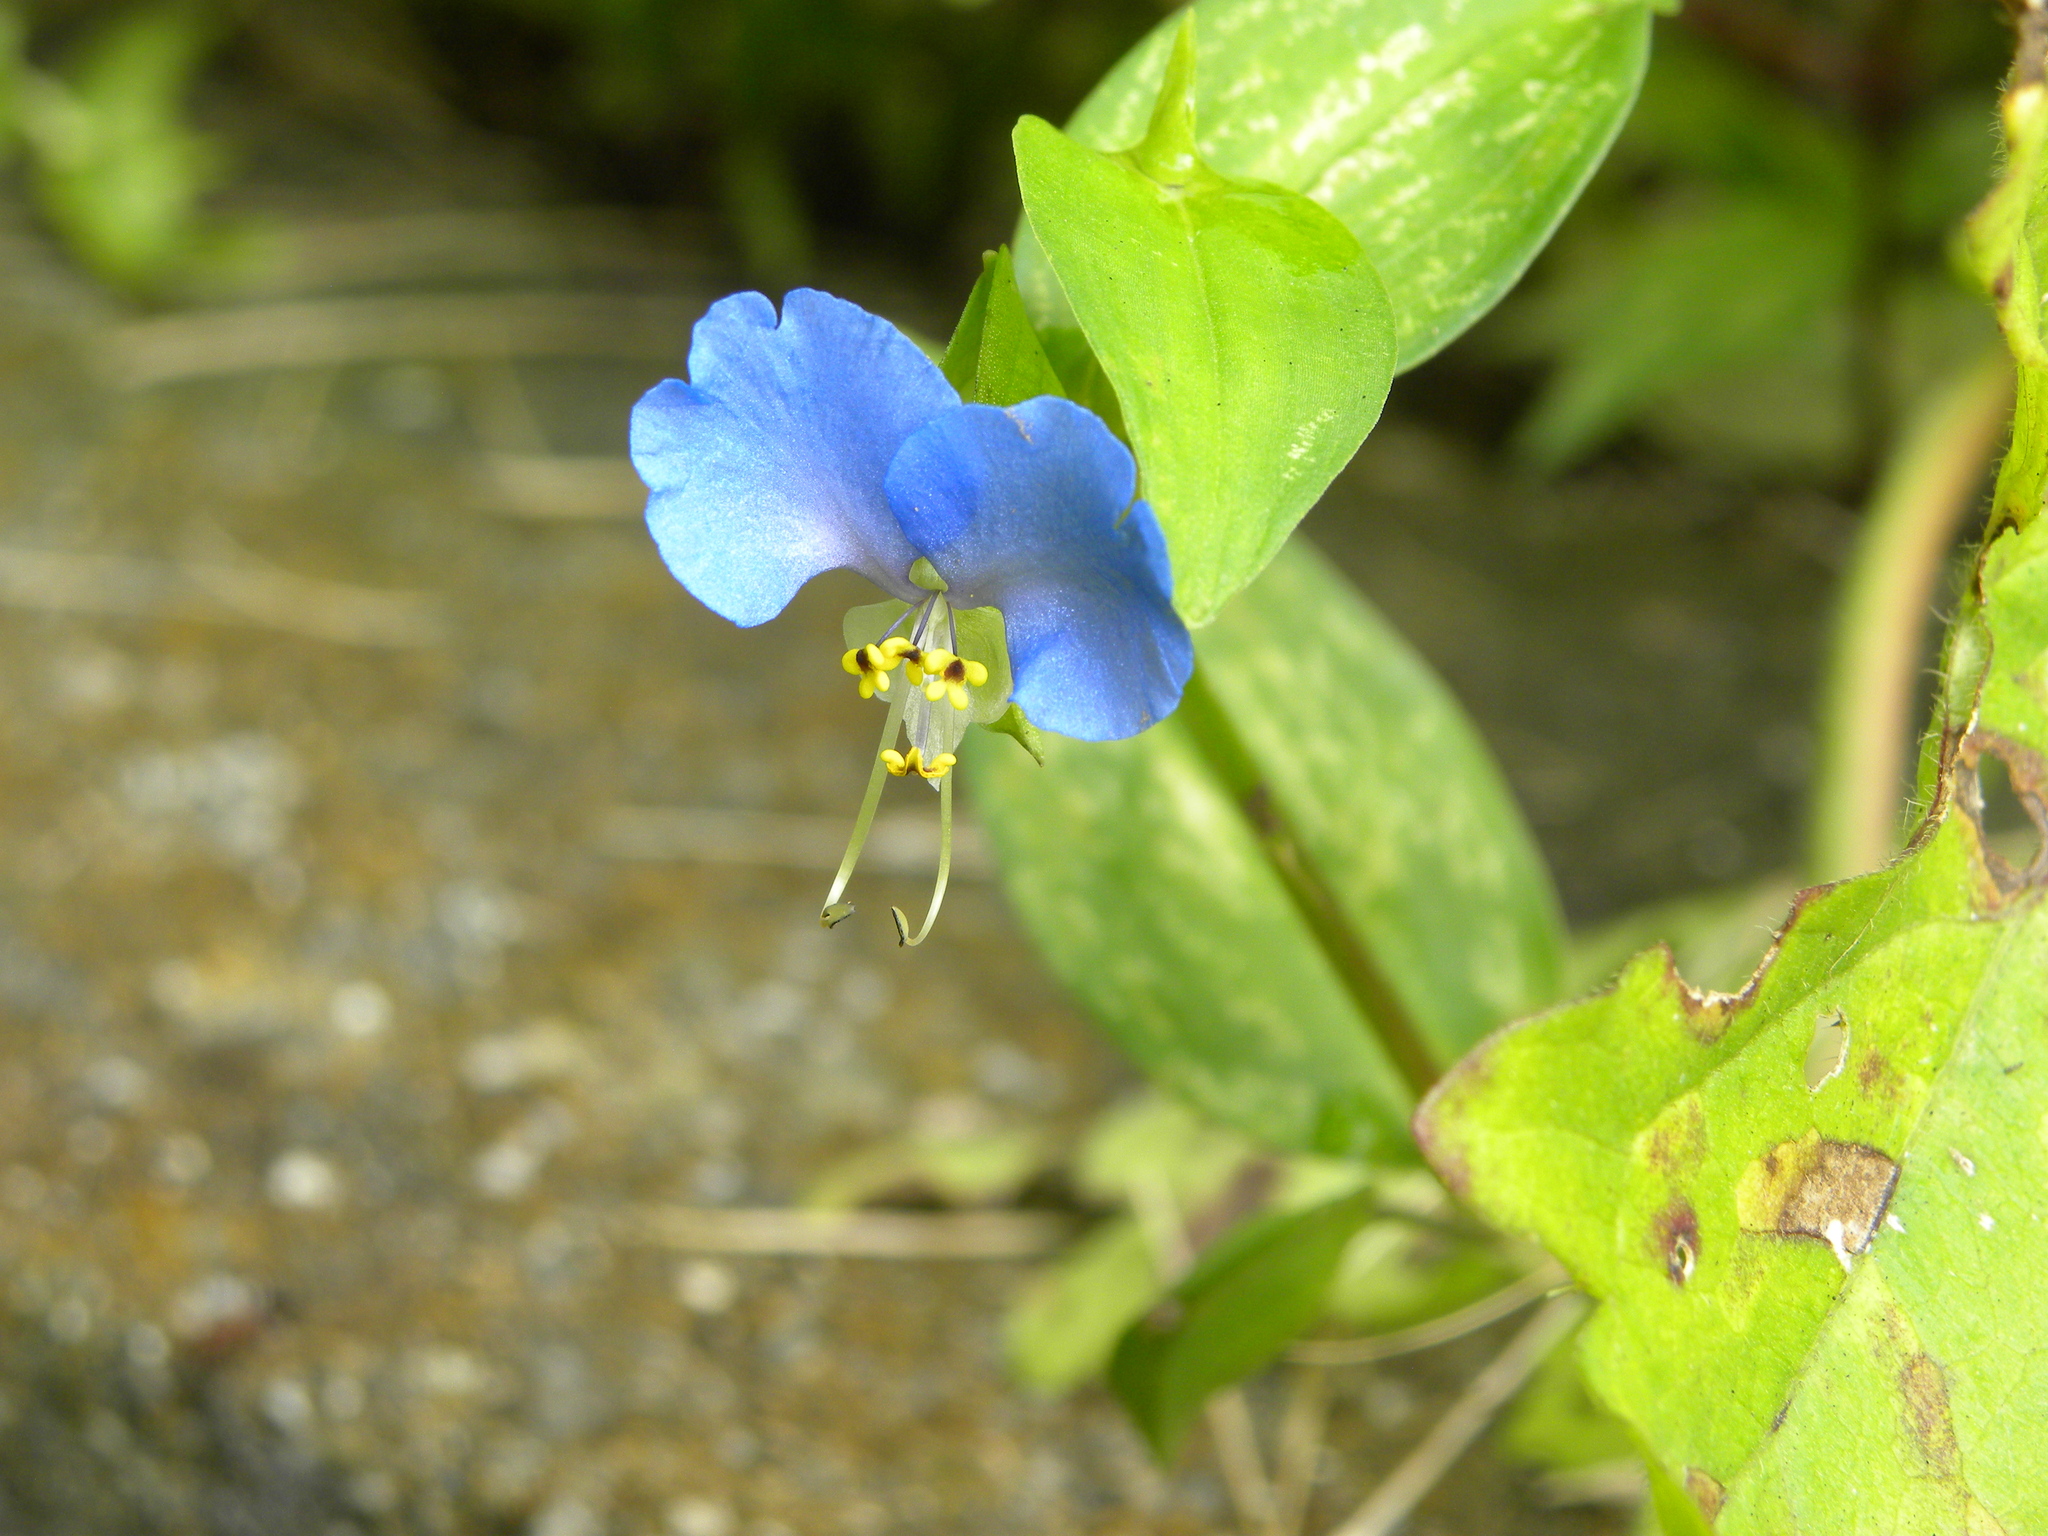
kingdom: Plantae
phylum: Tracheophyta
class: Liliopsida
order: Commelinales
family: Commelinaceae
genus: Commelina
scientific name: Commelina communis
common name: Asiatic dayflower
